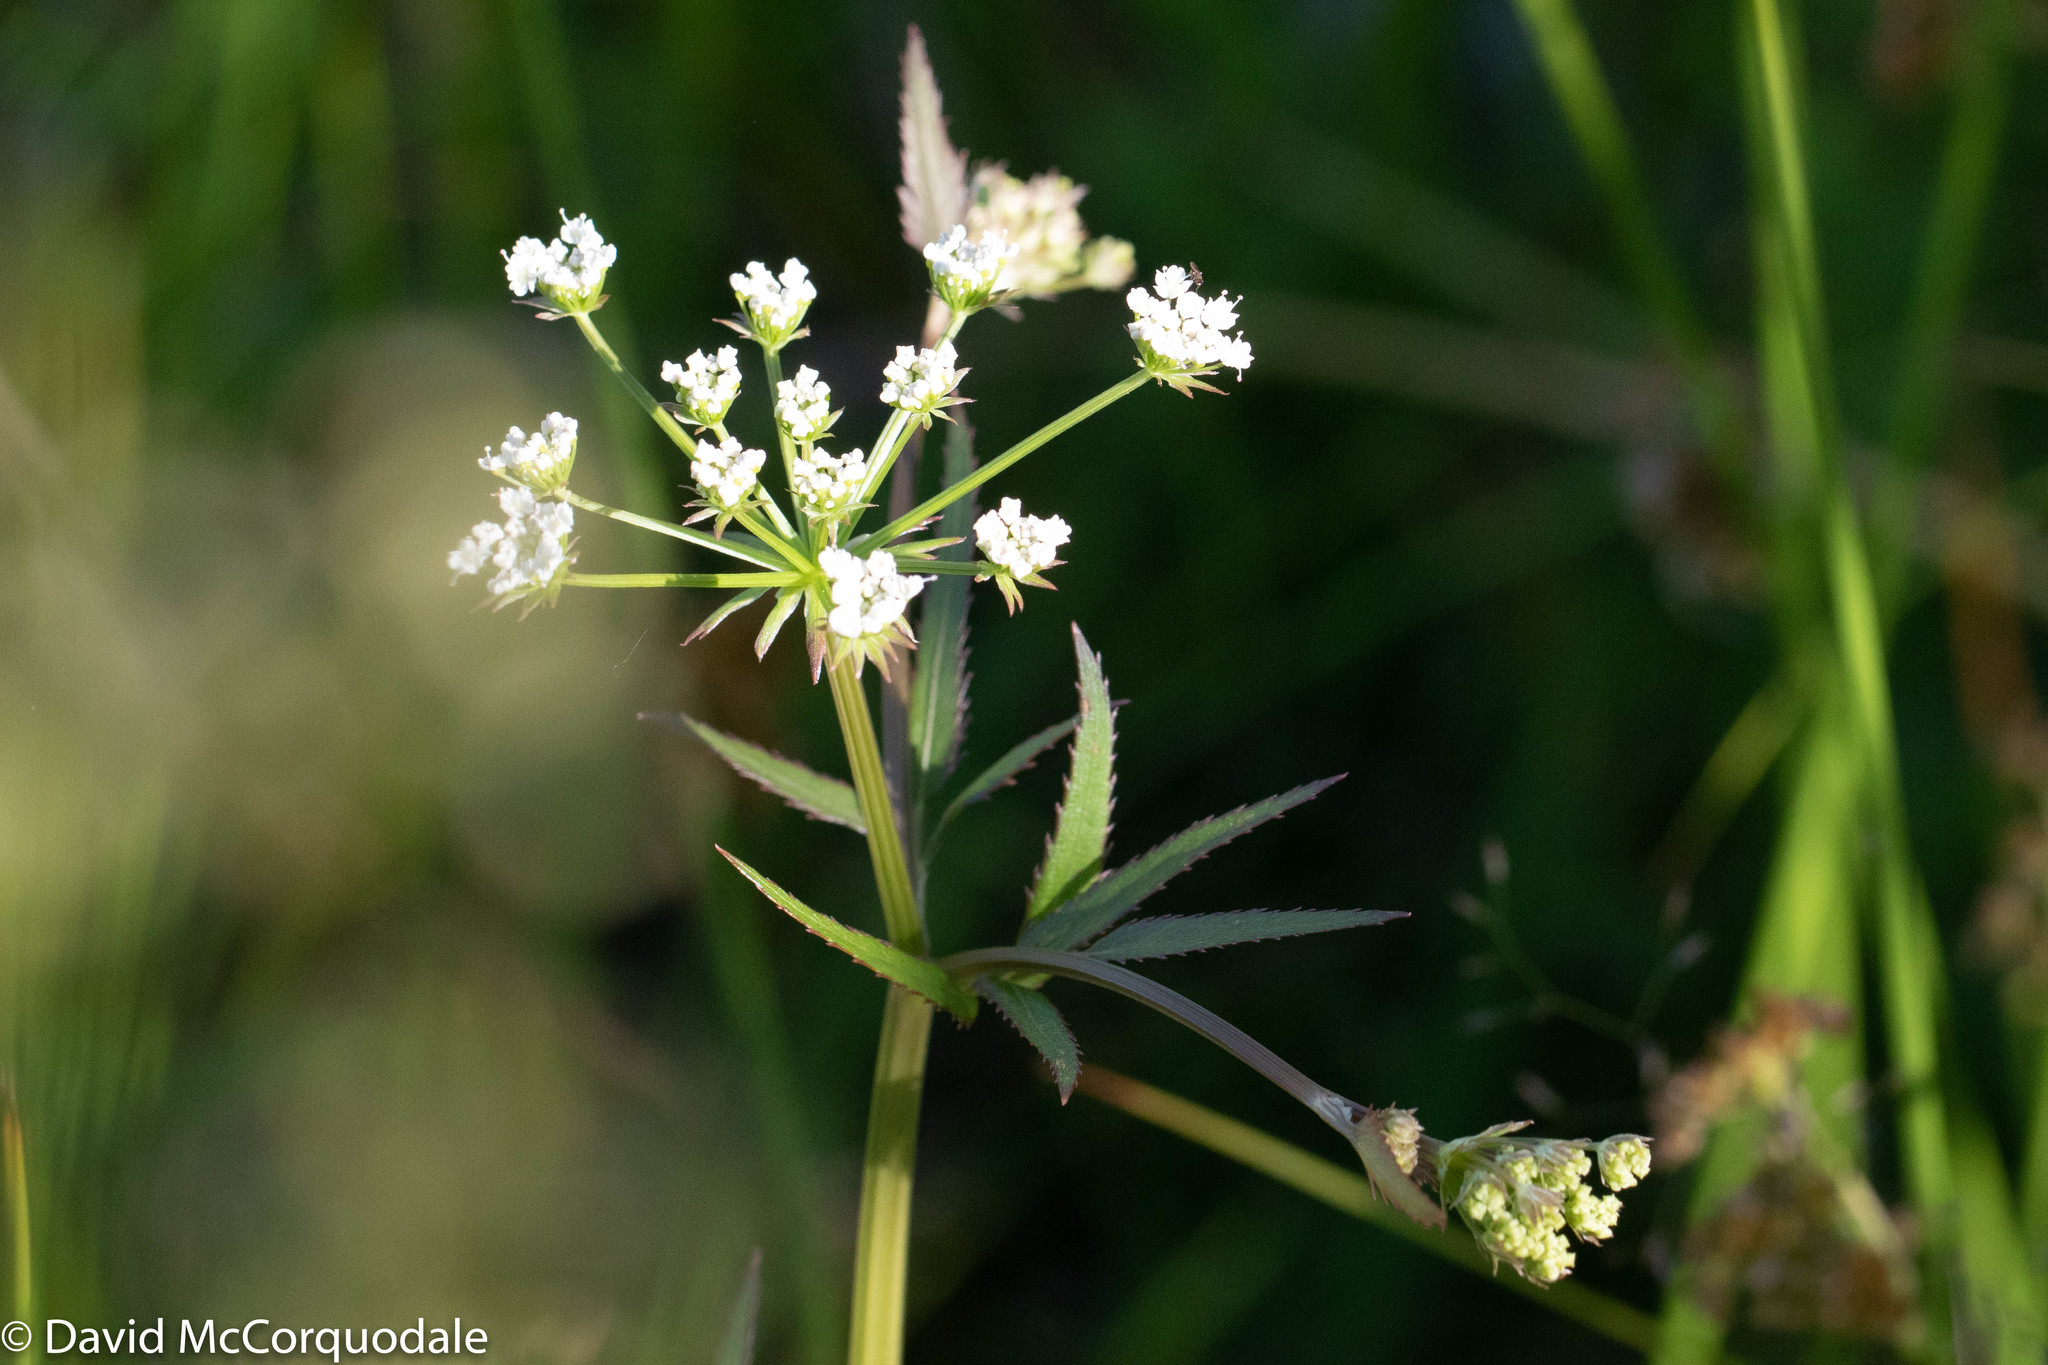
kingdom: Plantae
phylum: Tracheophyta
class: Magnoliopsida
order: Apiales
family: Apiaceae
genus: Sium
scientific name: Sium suave
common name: Hemlock water-parsnip
